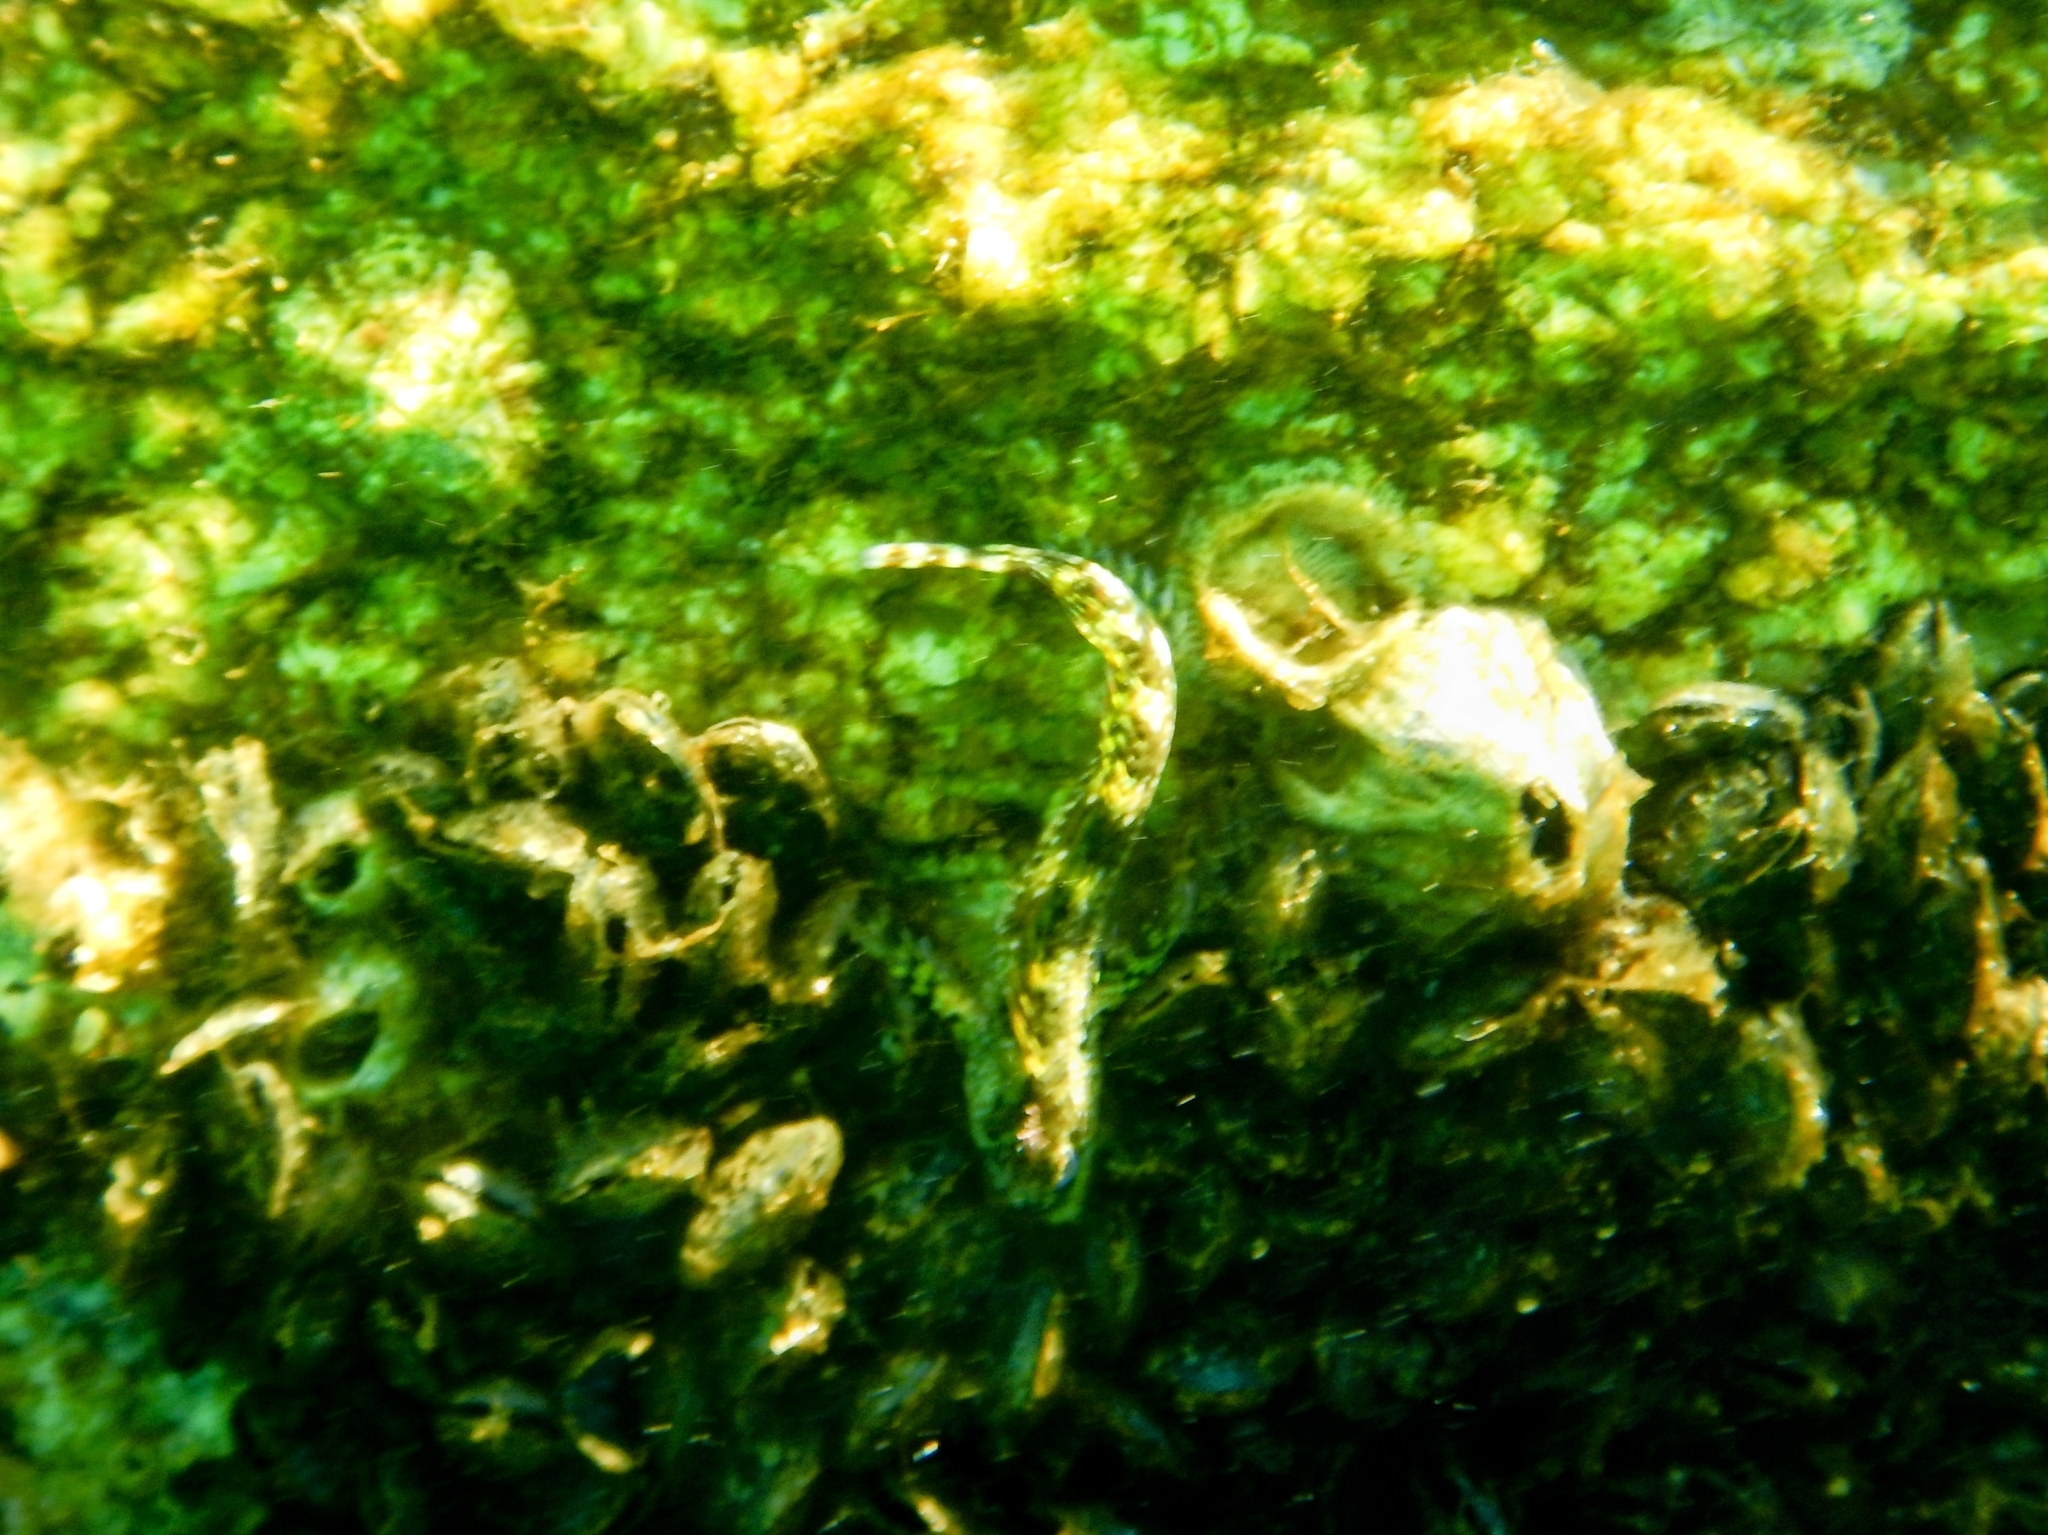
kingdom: Animalia
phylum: Chordata
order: Perciformes
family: Blenniidae
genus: Coryphoblennius
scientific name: Coryphoblennius galerita
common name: Montagu's blenny
